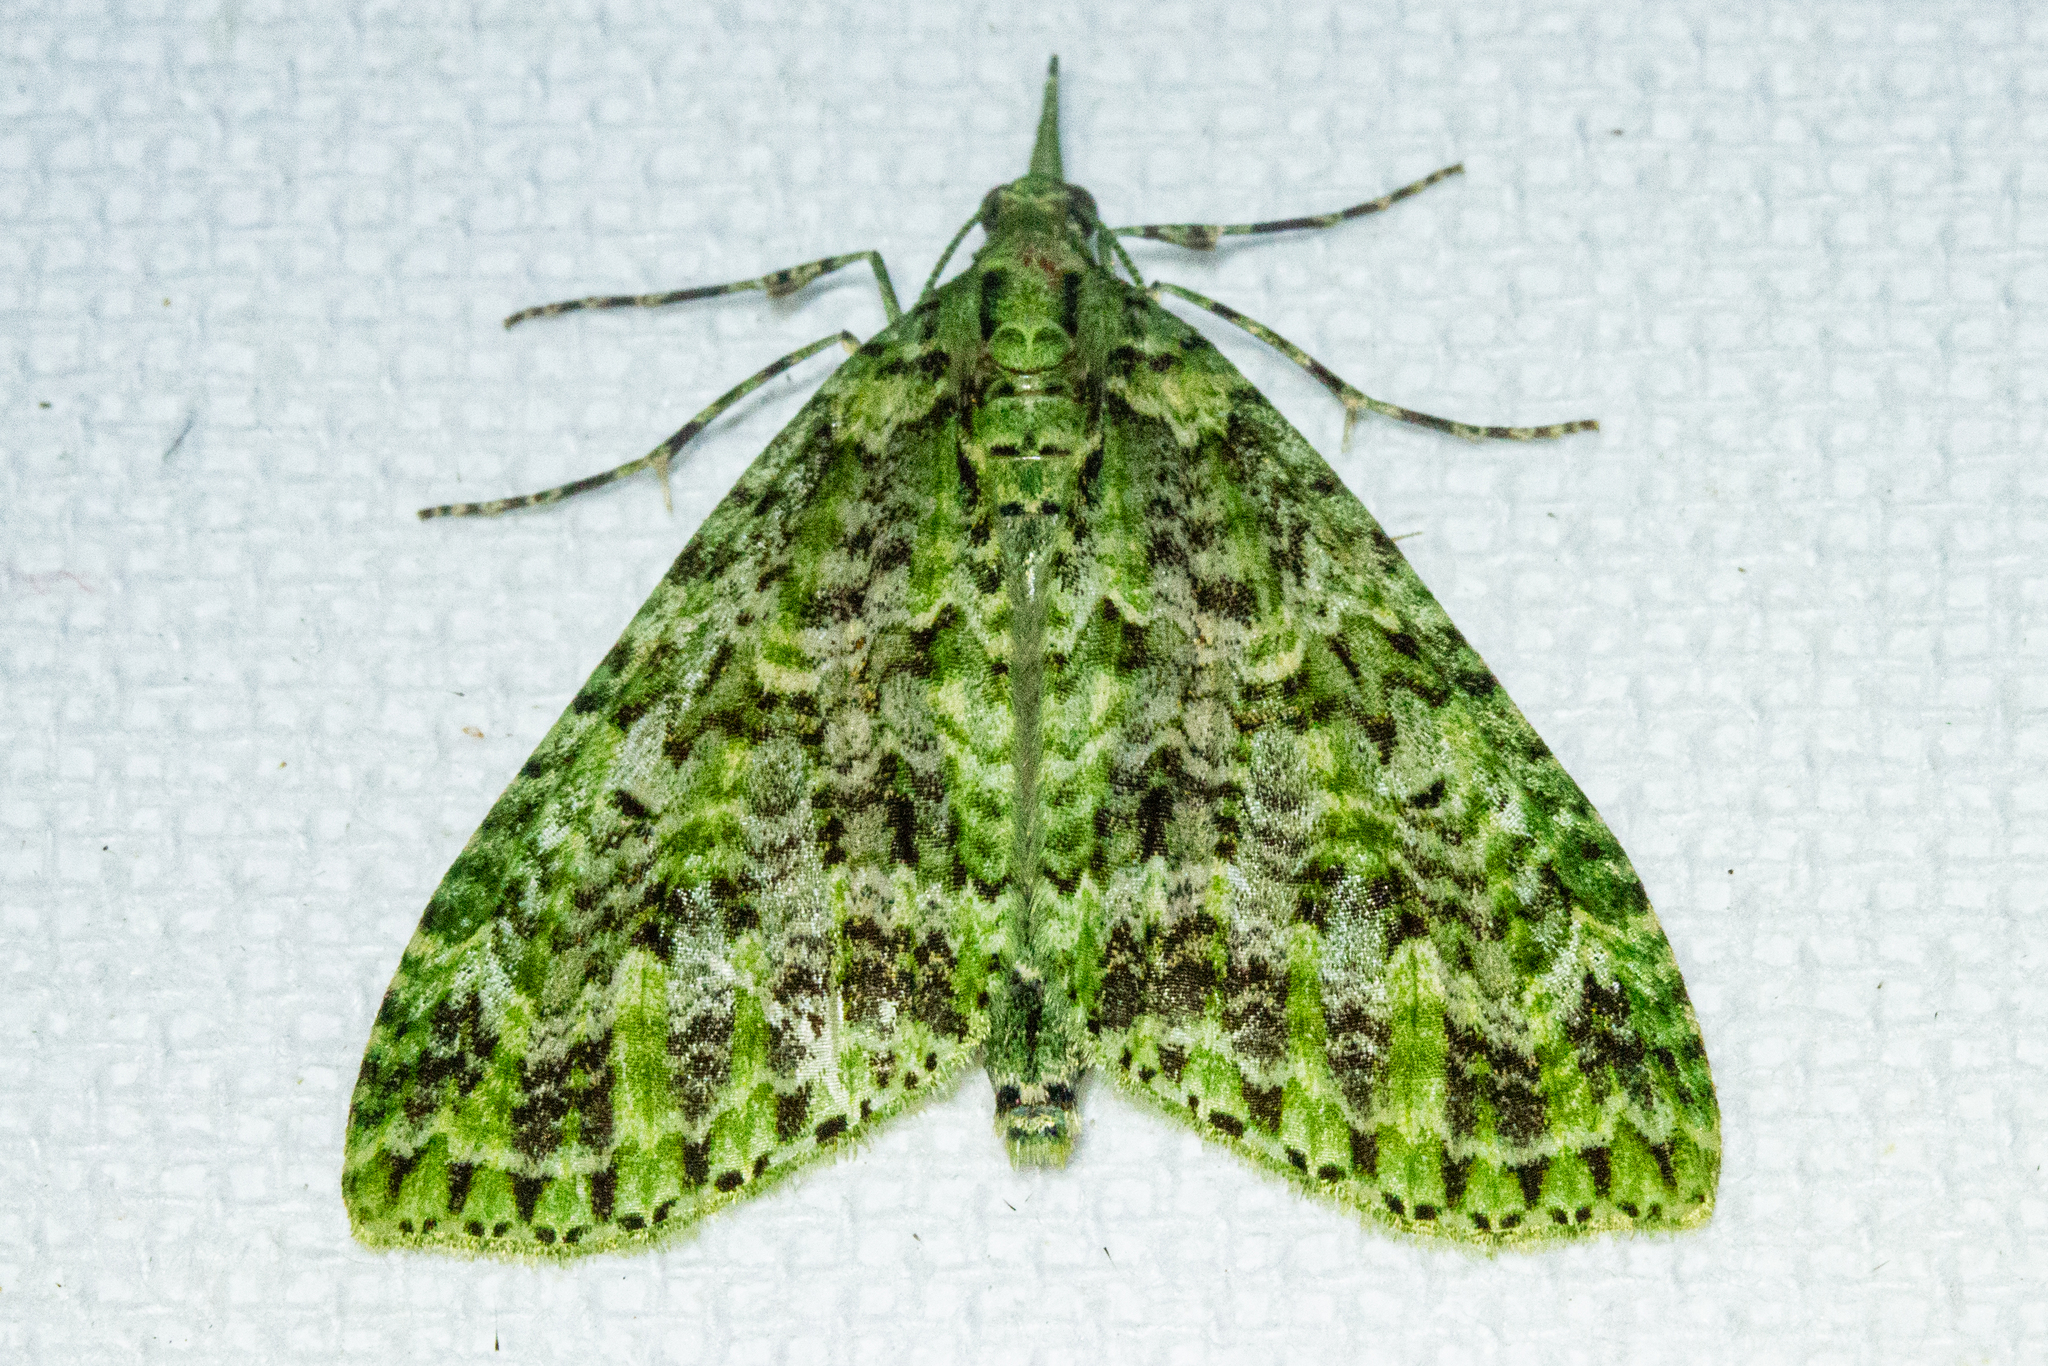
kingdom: Animalia
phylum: Arthropoda
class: Insecta
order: Lepidoptera
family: Geometridae
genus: Tatosoma
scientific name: Tatosoma tipulata
